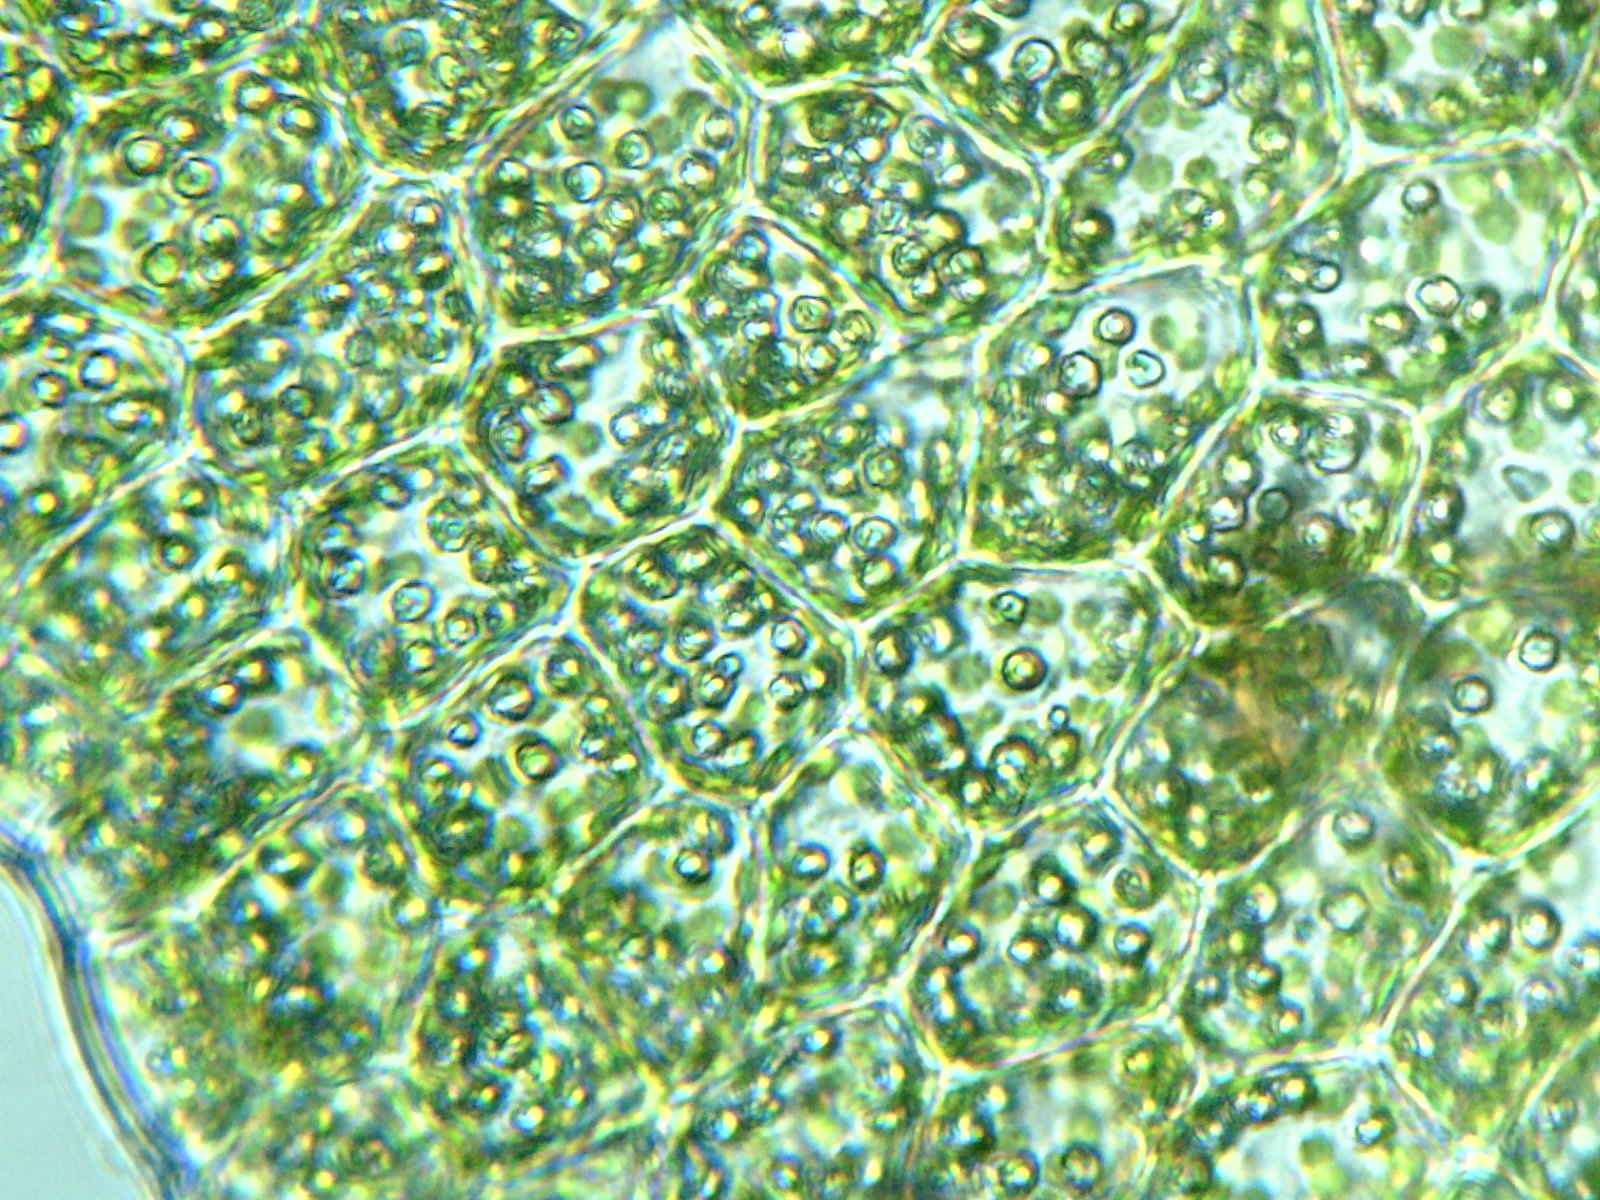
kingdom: Plantae
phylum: Marchantiophyta
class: Jungermanniopsida
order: Jungermanniales
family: Scapaniaceae
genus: Schistochilopsis
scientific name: Schistochilopsis incisa
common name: Jagged notchwort
